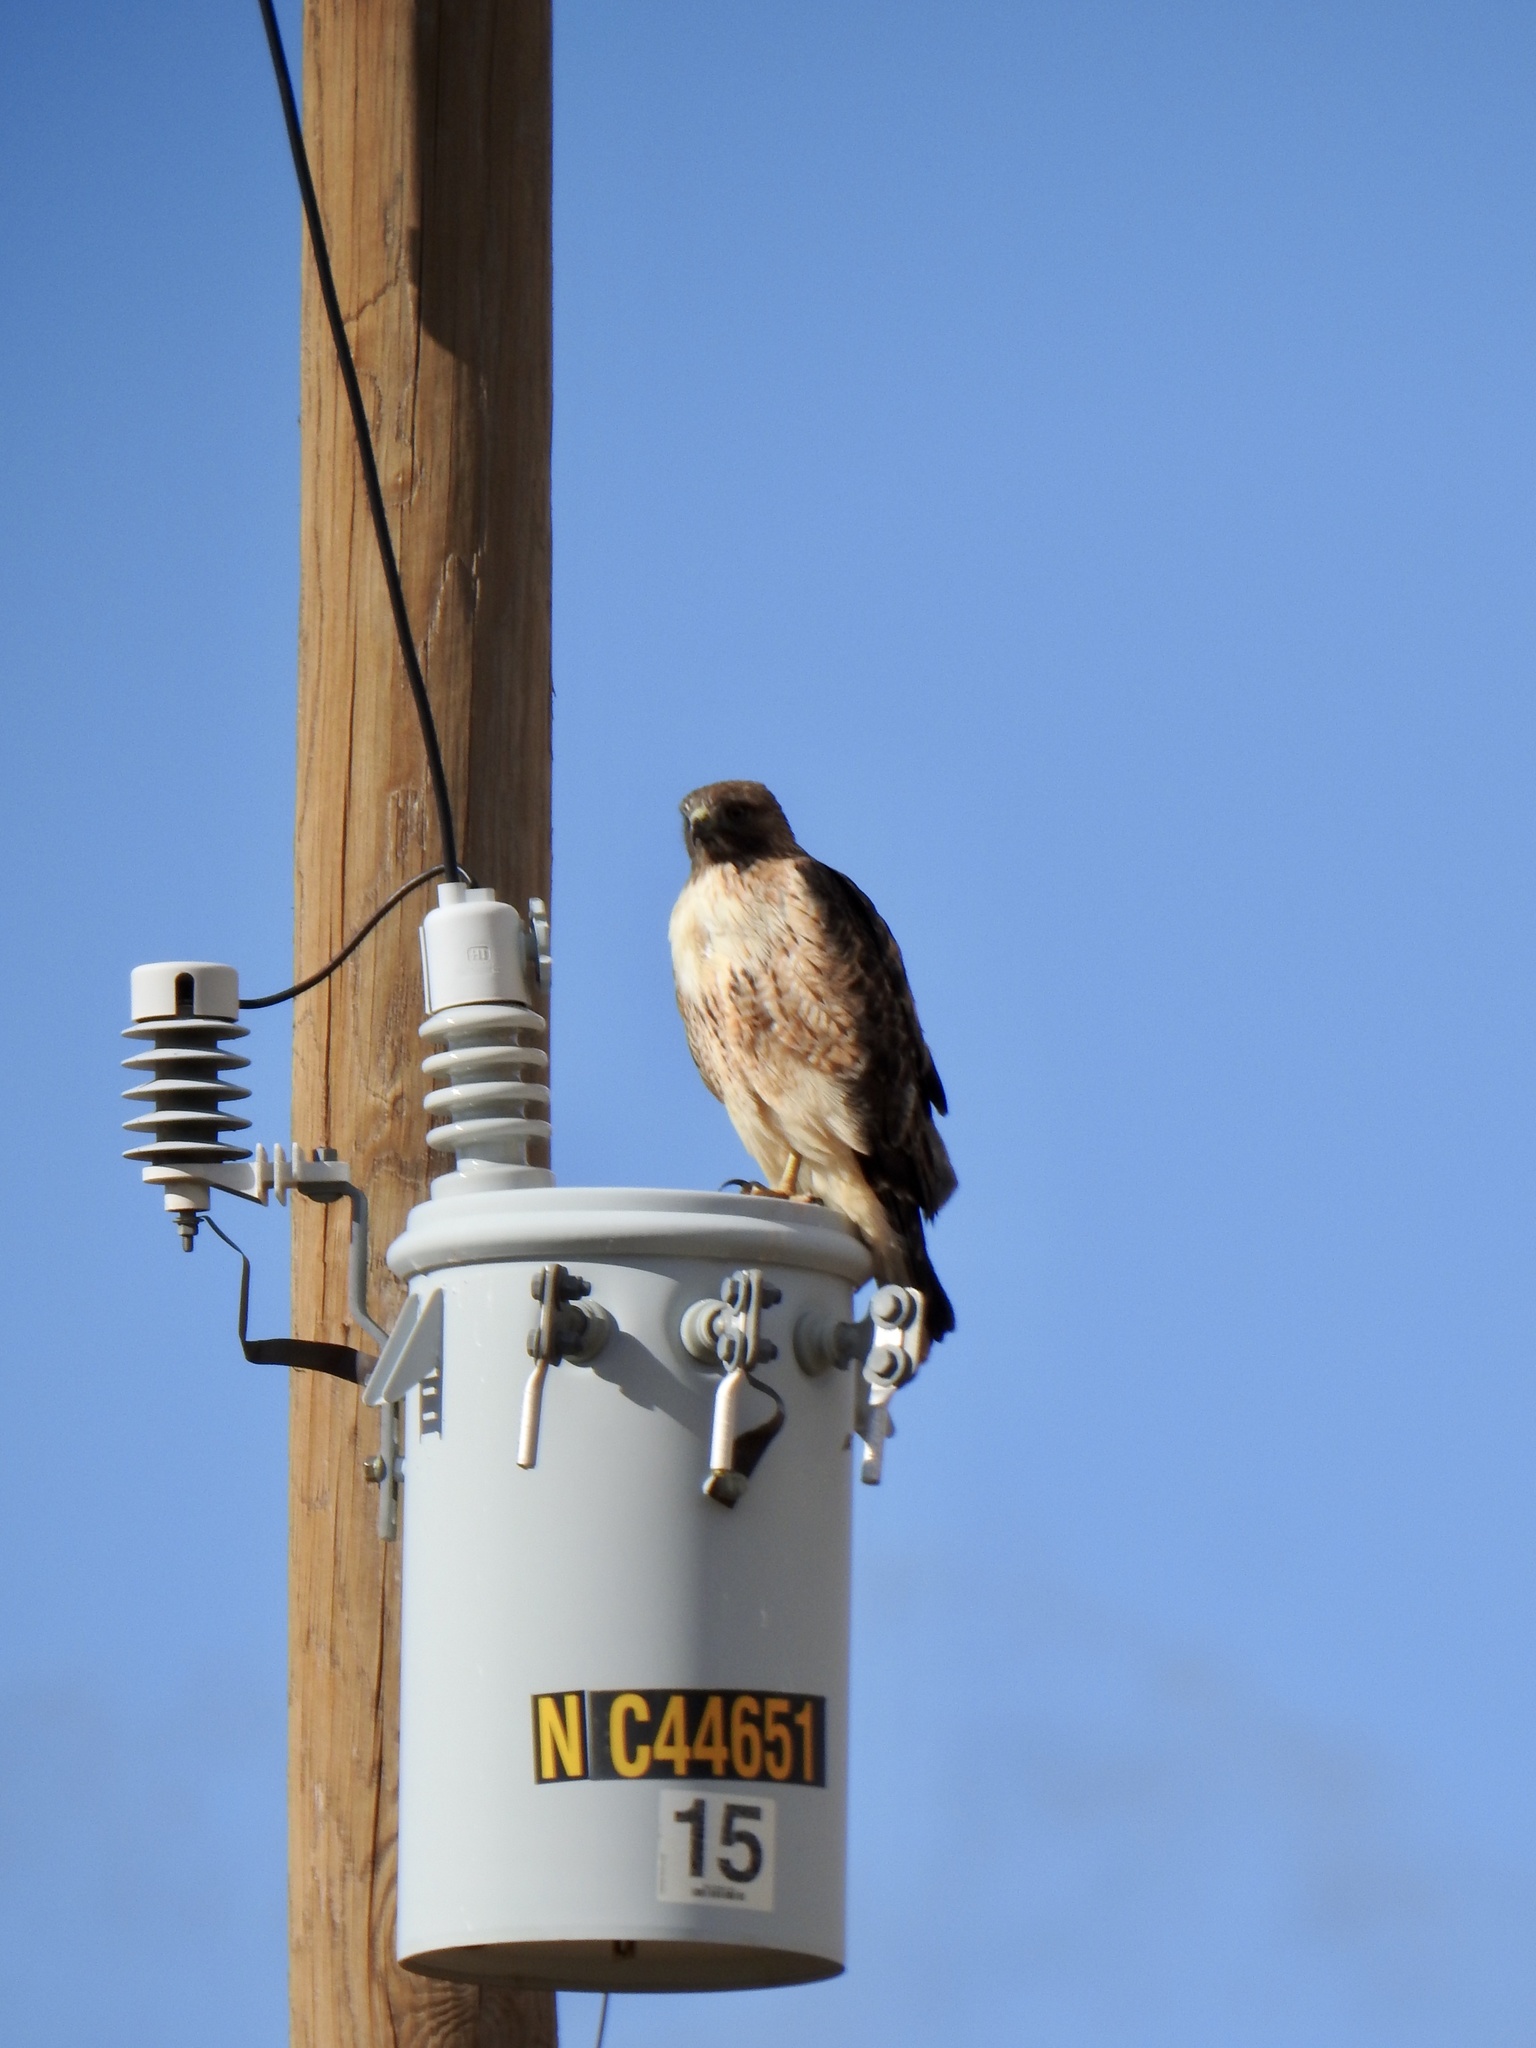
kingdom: Animalia
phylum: Chordata
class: Aves
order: Accipitriformes
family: Accipitridae
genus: Buteo
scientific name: Buteo jamaicensis
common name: Red-tailed hawk
